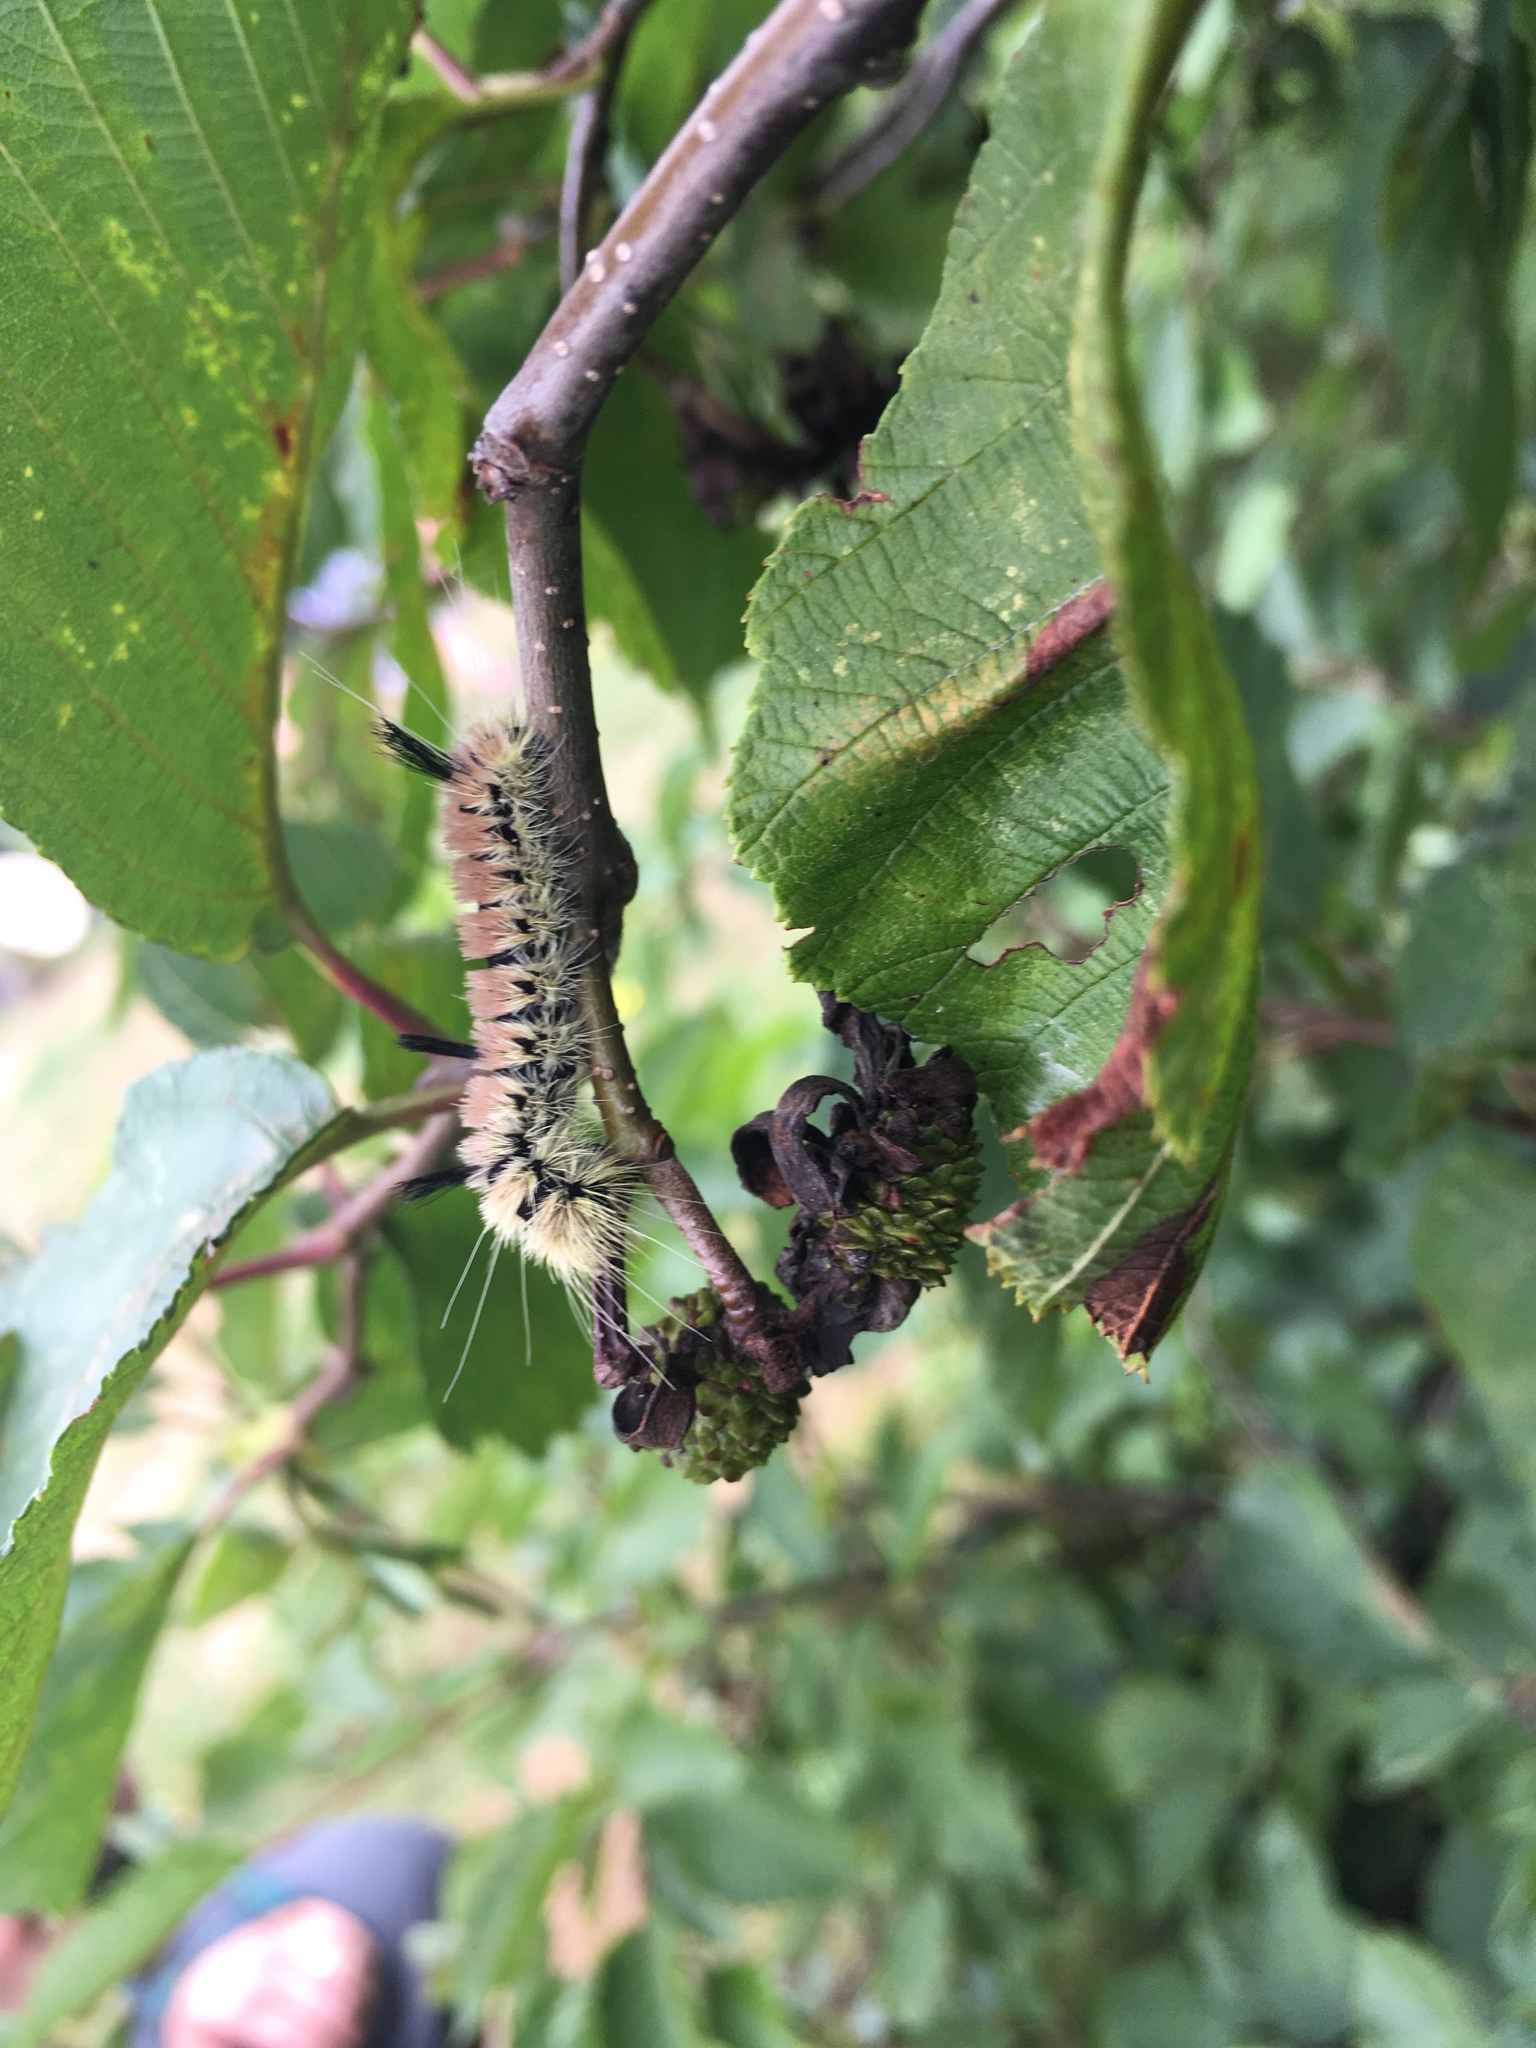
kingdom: Animalia
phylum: Arthropoda
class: Insecta
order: Lepidoptera
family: Noctuidae
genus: Acronicta
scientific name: Acronicta insita
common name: Large gray dagger
